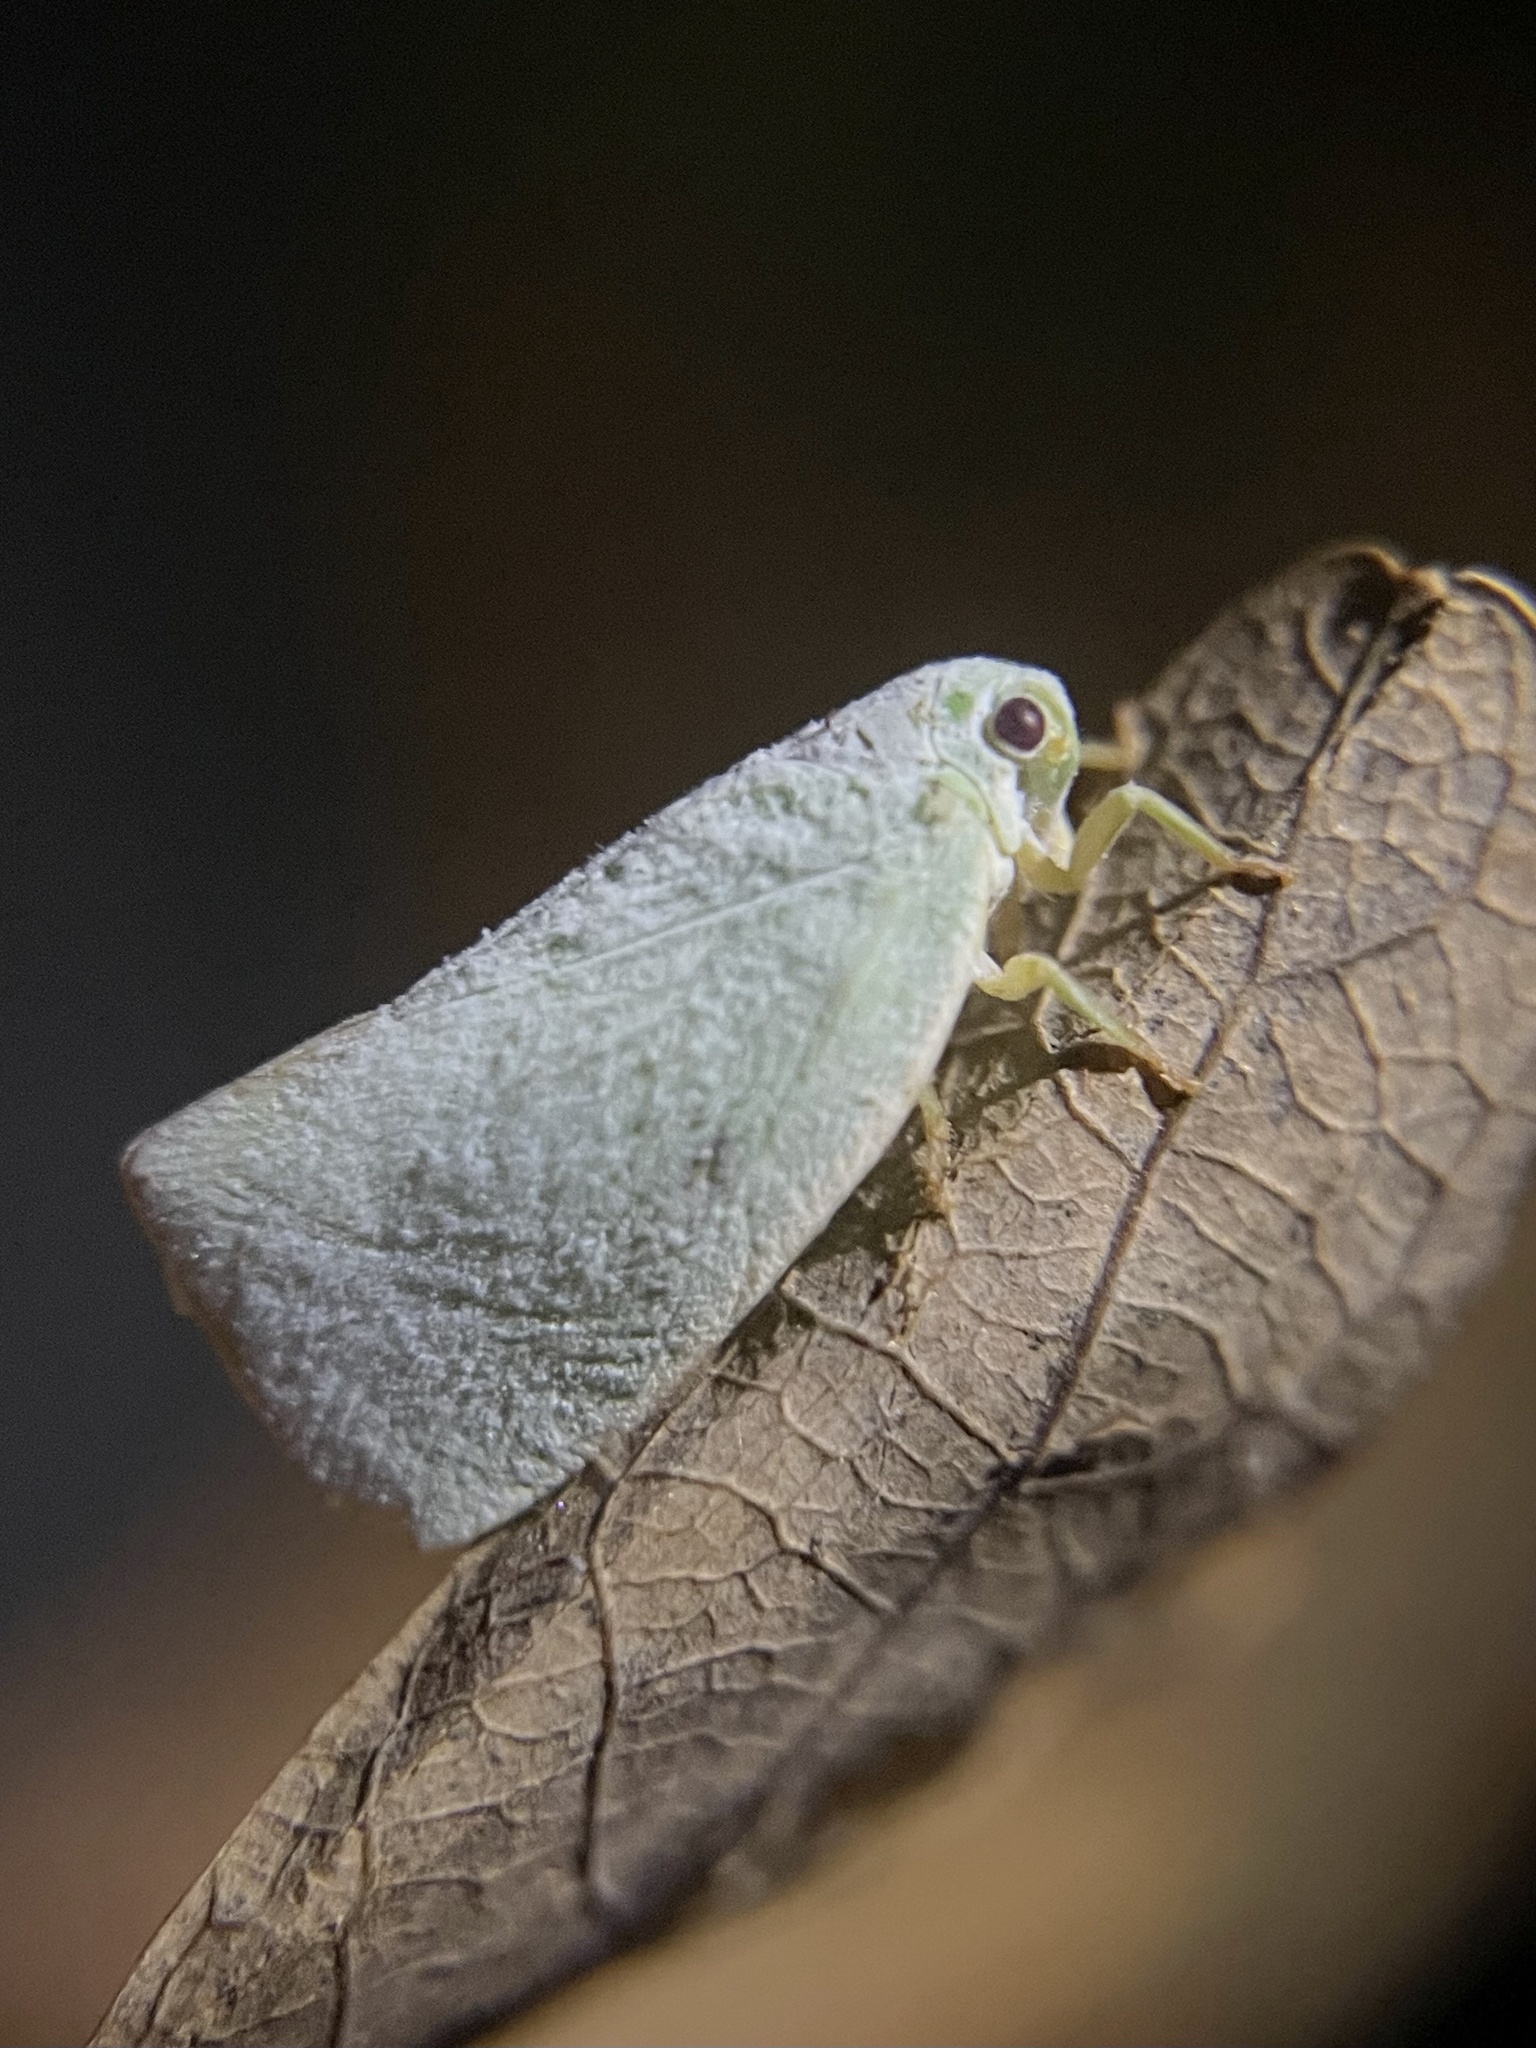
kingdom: Animalia
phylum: Arthropoda
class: Insecta
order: Hemiptera
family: Flatidae
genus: Flatormenis
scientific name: Flatormenis proxima
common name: Northern flatid planthopper
